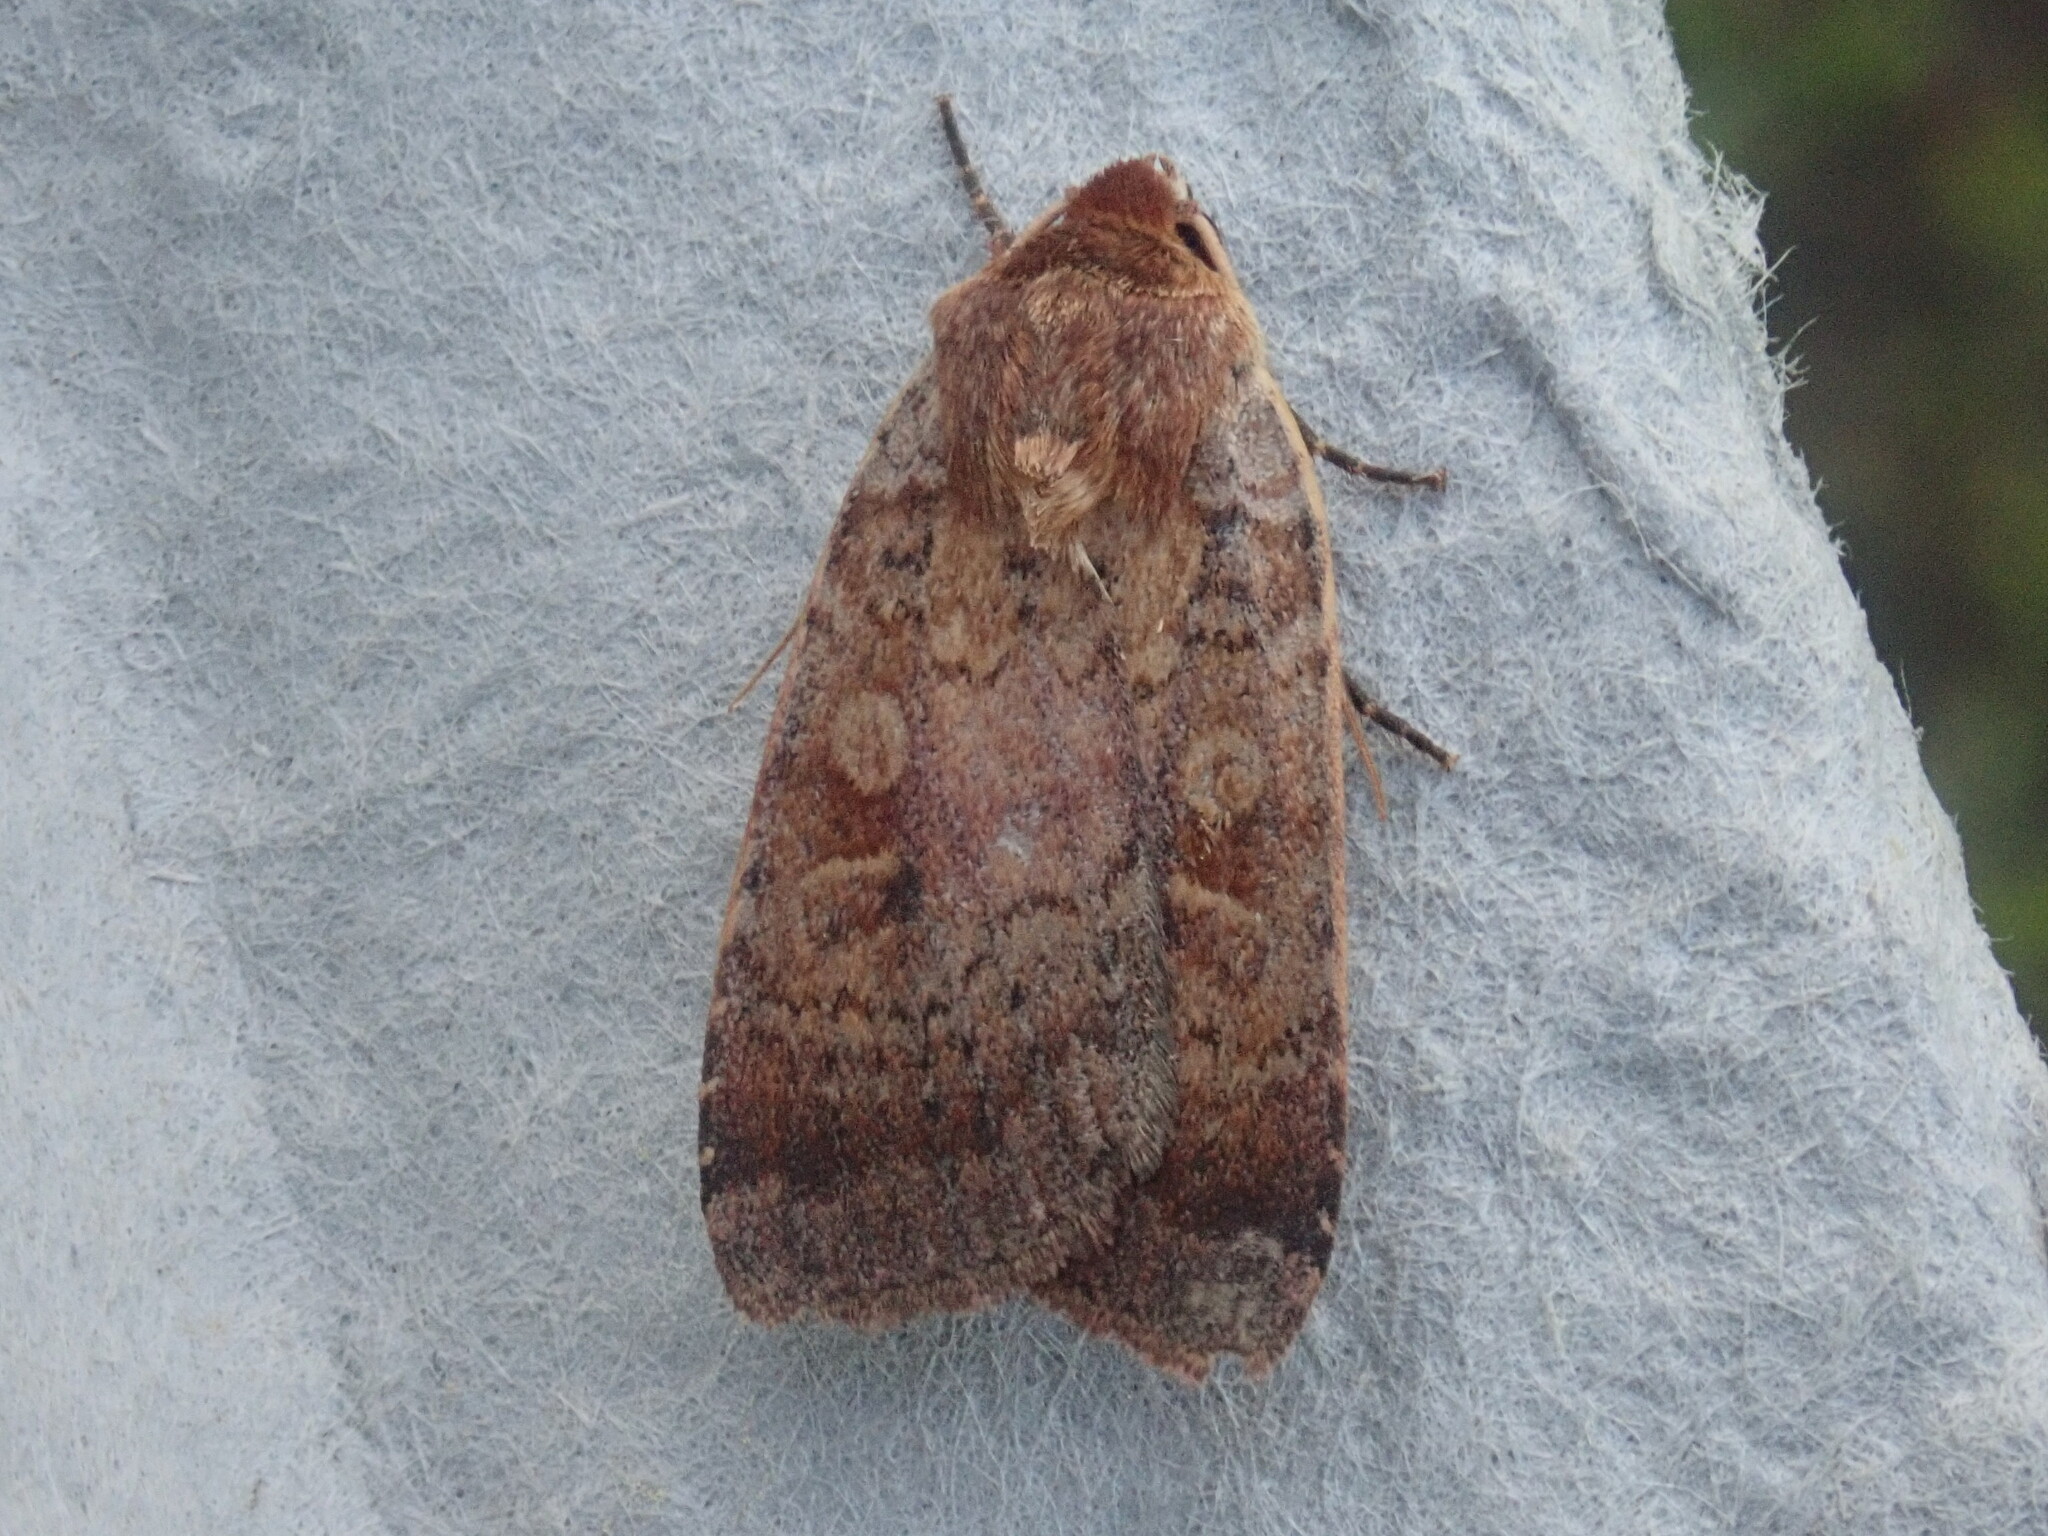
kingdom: Animalia
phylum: Arthropoda
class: Insecta
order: Lepidoptera
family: Noctuidae
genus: Lycophotia
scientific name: Lycophotia phyllophora
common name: Lycophotia moth
